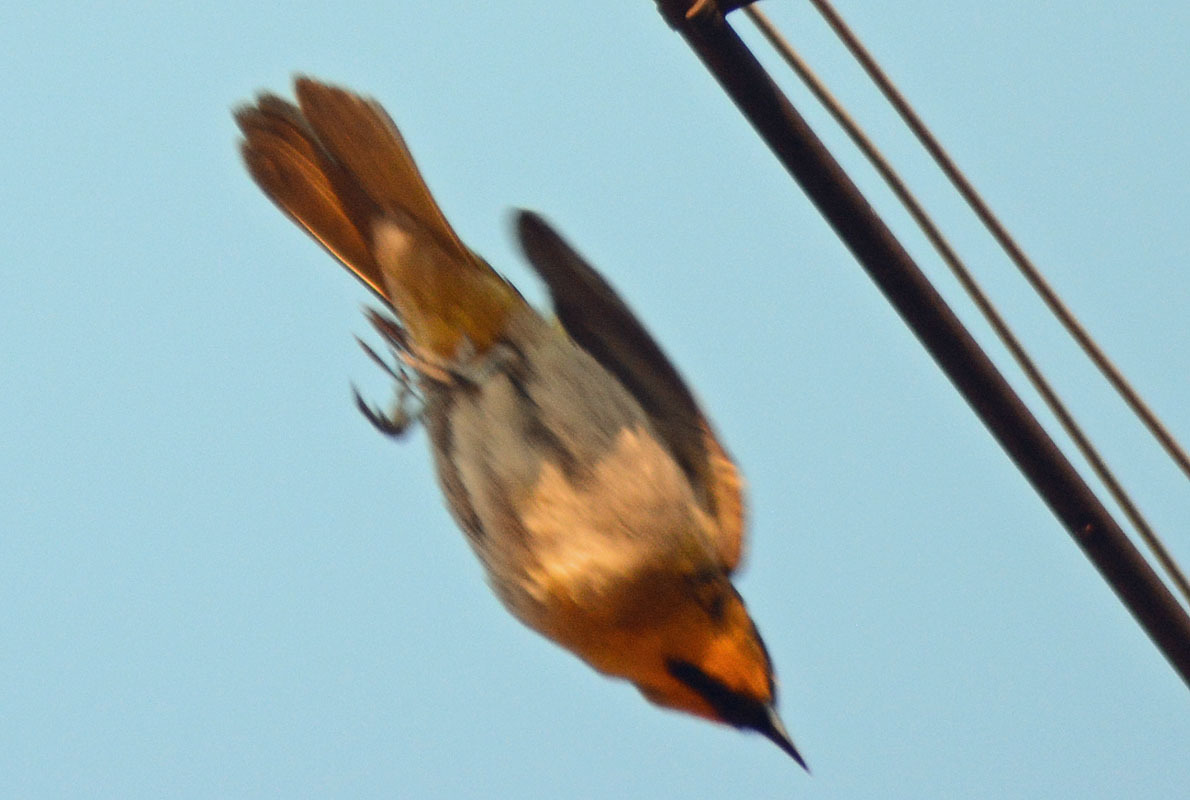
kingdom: Animalia
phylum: Chordata
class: Aves
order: Passeriformes
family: Icteridae
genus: Icterus
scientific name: Icterus bullockii
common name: Bullock's oriole
